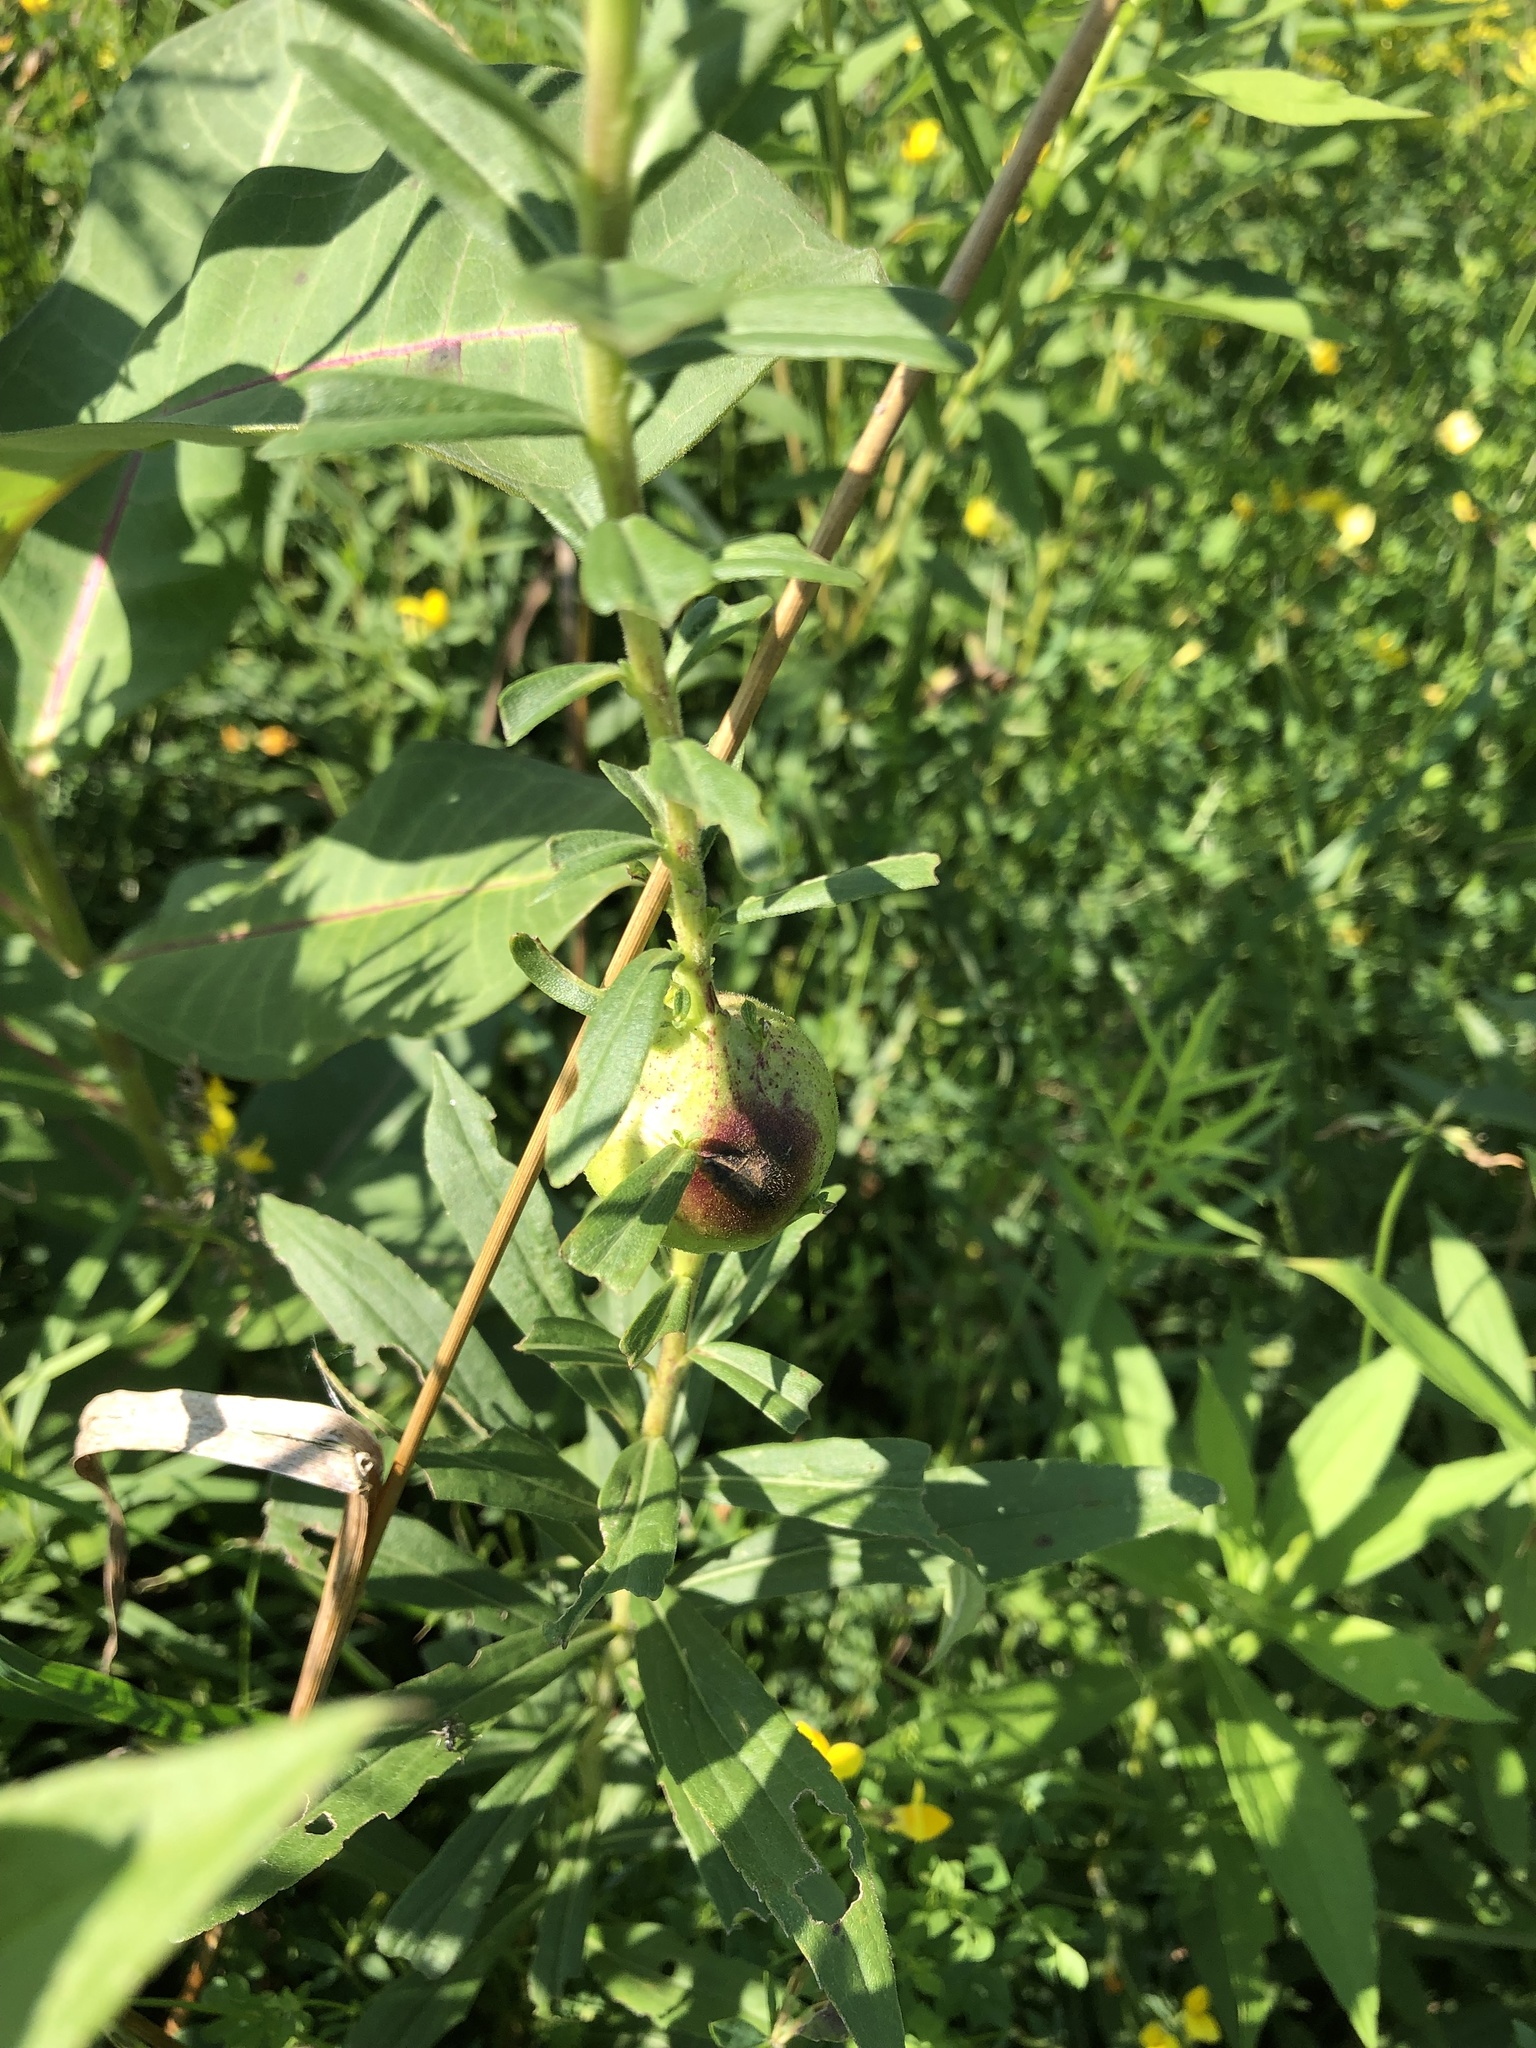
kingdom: Animalia
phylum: Arthropoda
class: Insecta
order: Diptera
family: Tephritidae
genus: Eurosta
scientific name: Eurosta solidaginis
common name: Goldenrod gall fly
